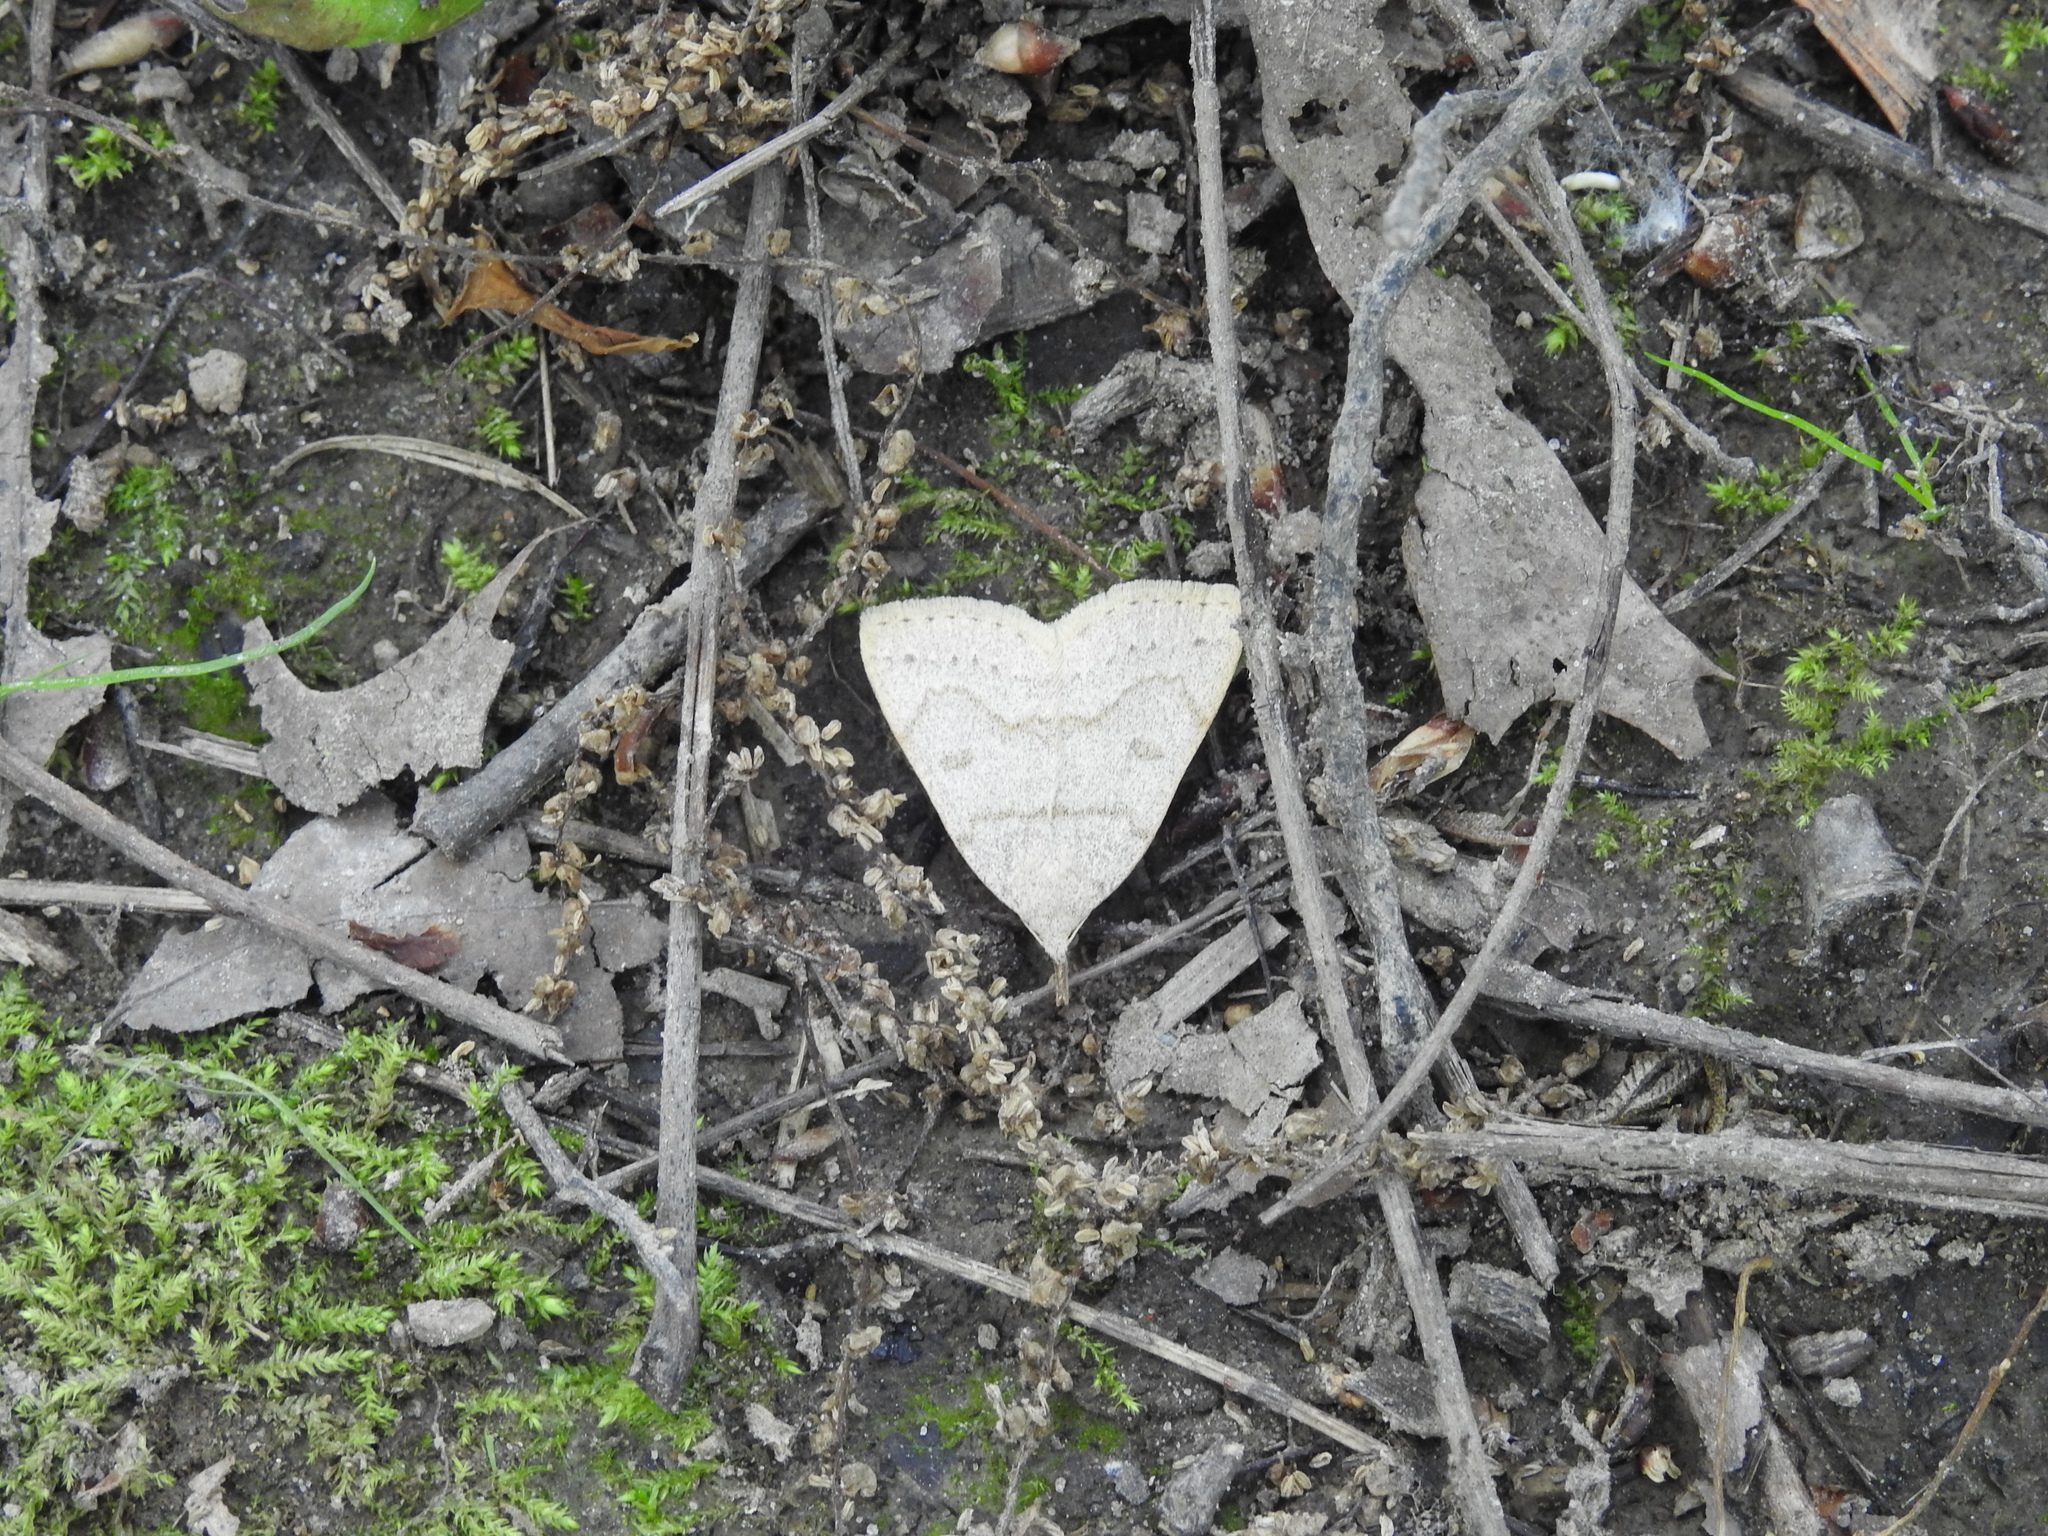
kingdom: Animalia
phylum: Arthropoda
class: Insecta
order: Lepidoptera
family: Erebidae
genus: Macrochilo
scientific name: Macrochilo morbidalis
